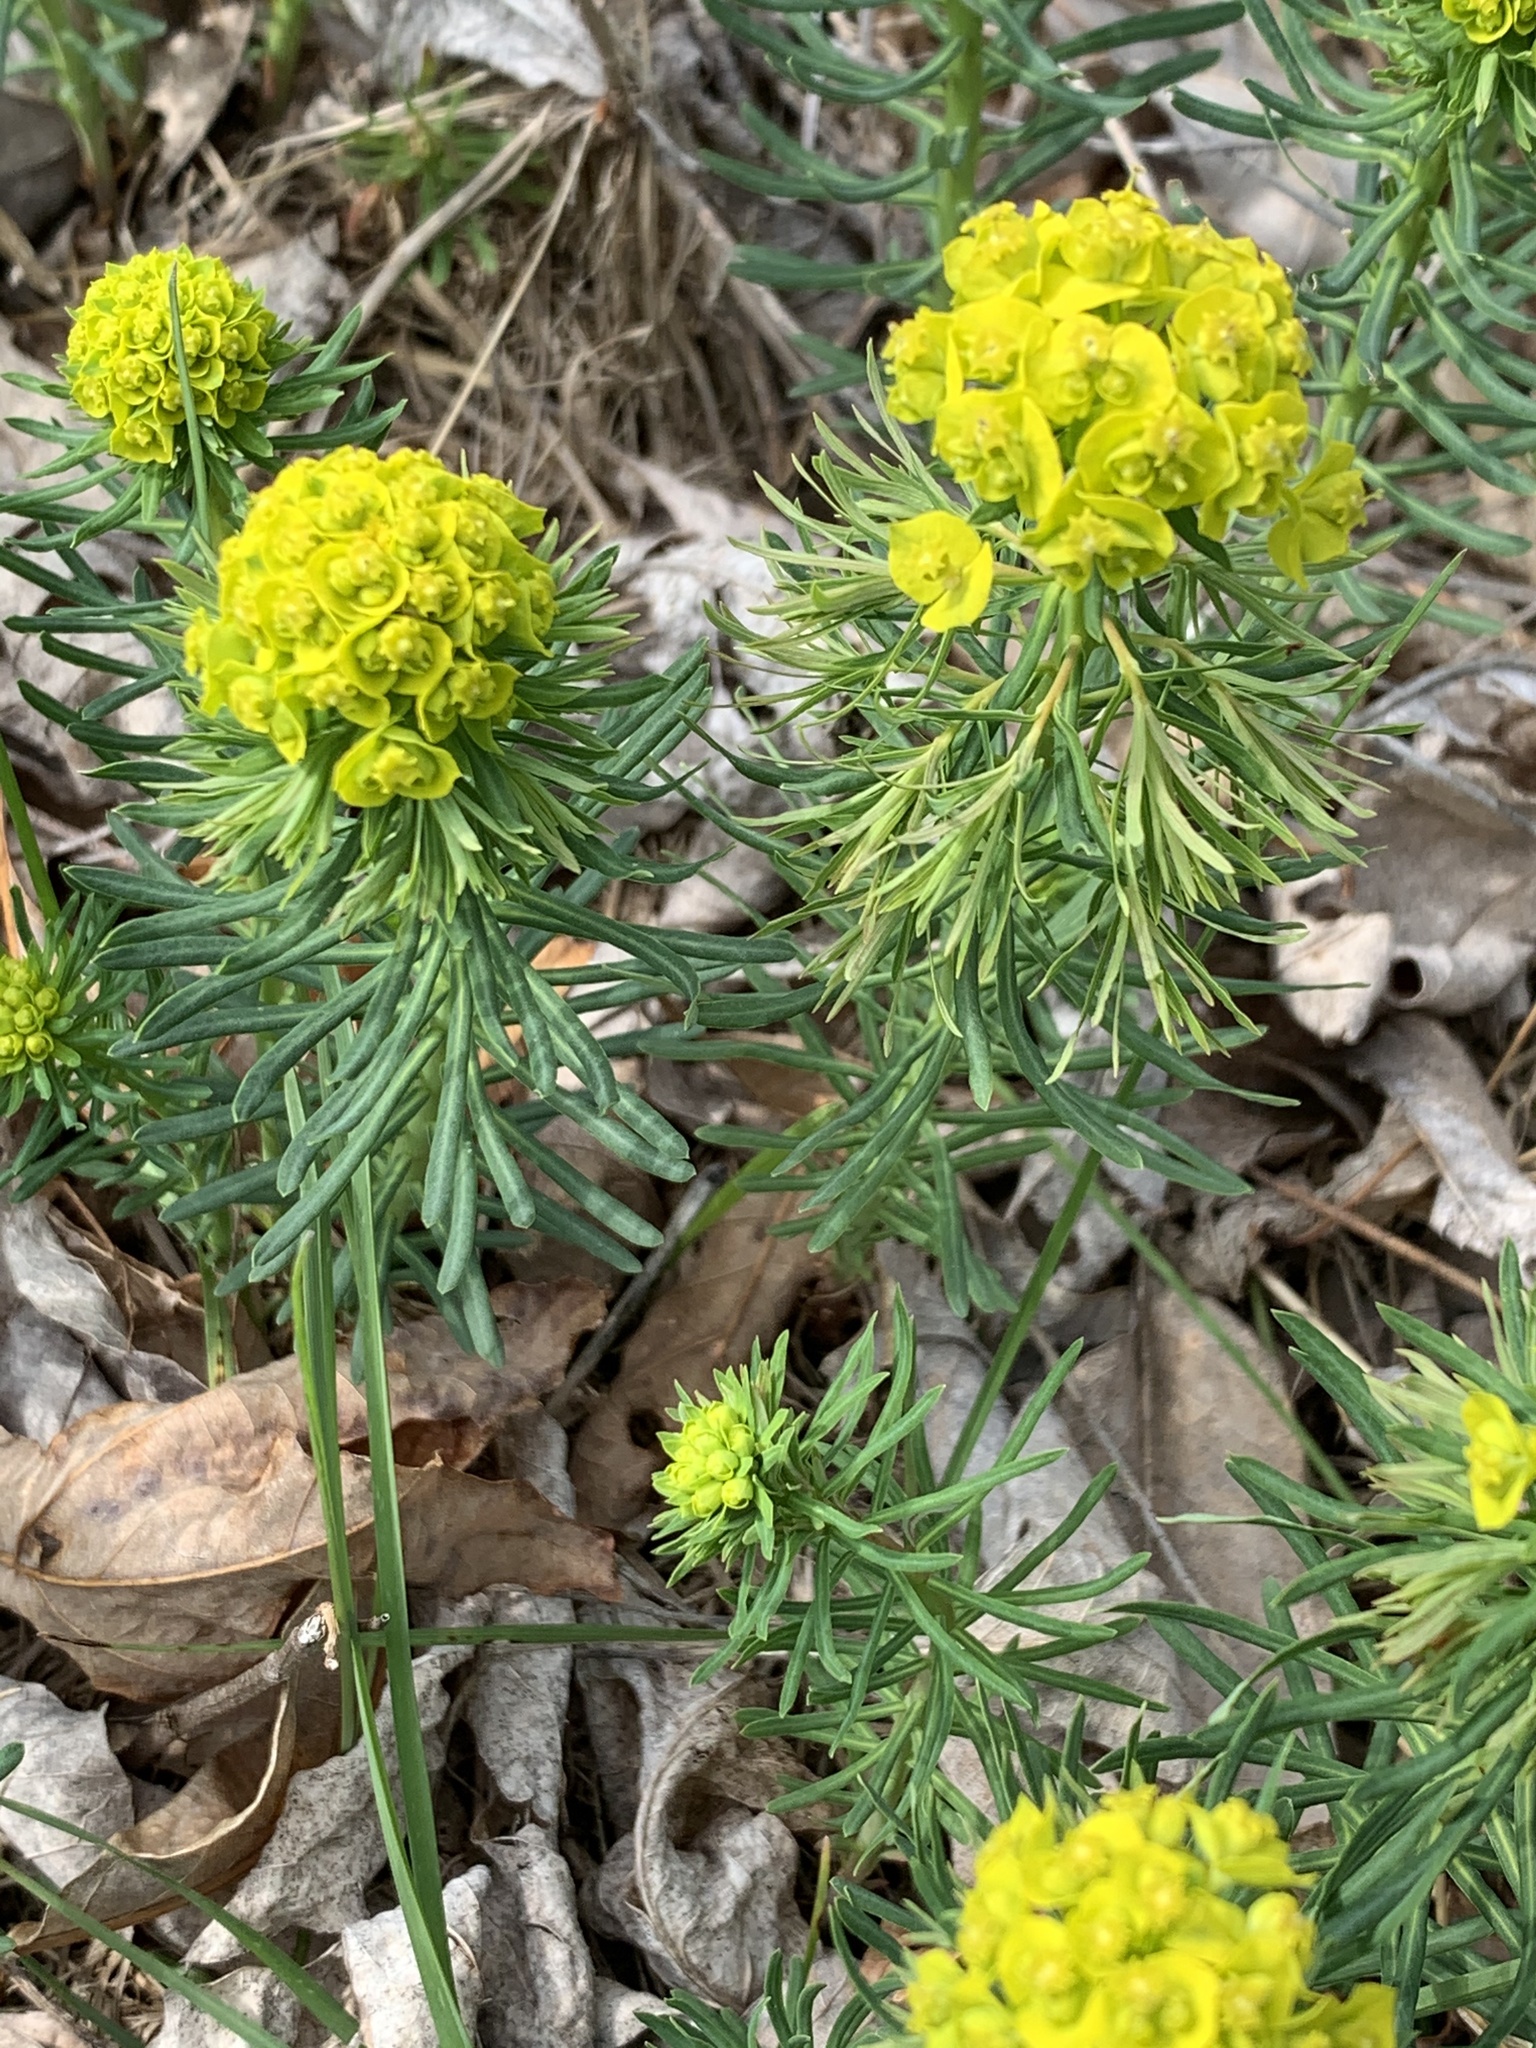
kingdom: Plantae
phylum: Tracheophyta
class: Magnoliopsida
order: Malpighiales
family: Euphorbiaceae
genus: Euphorbia
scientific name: Euphorbia cyparissias
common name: Cypress spurge
